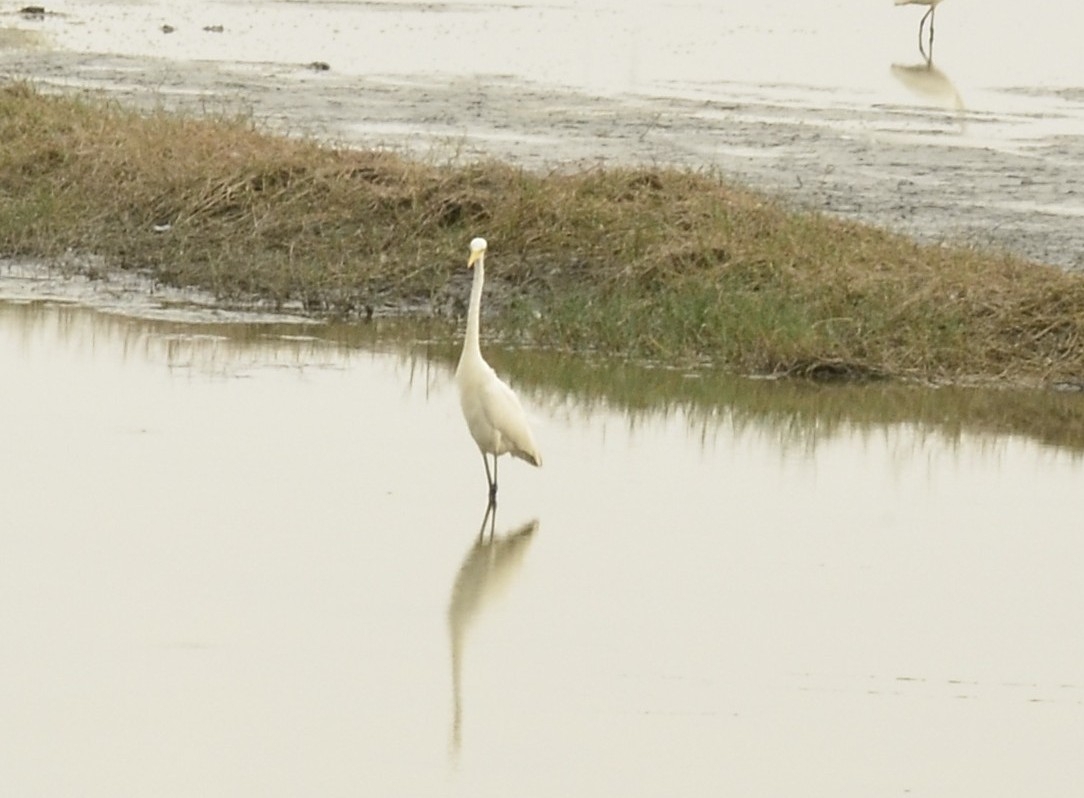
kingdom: Animalia
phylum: Chordata
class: Aves
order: Pelecaniformes
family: Ardeidae
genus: Egretta
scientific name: Egretta intermedia
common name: Intermediate egret
